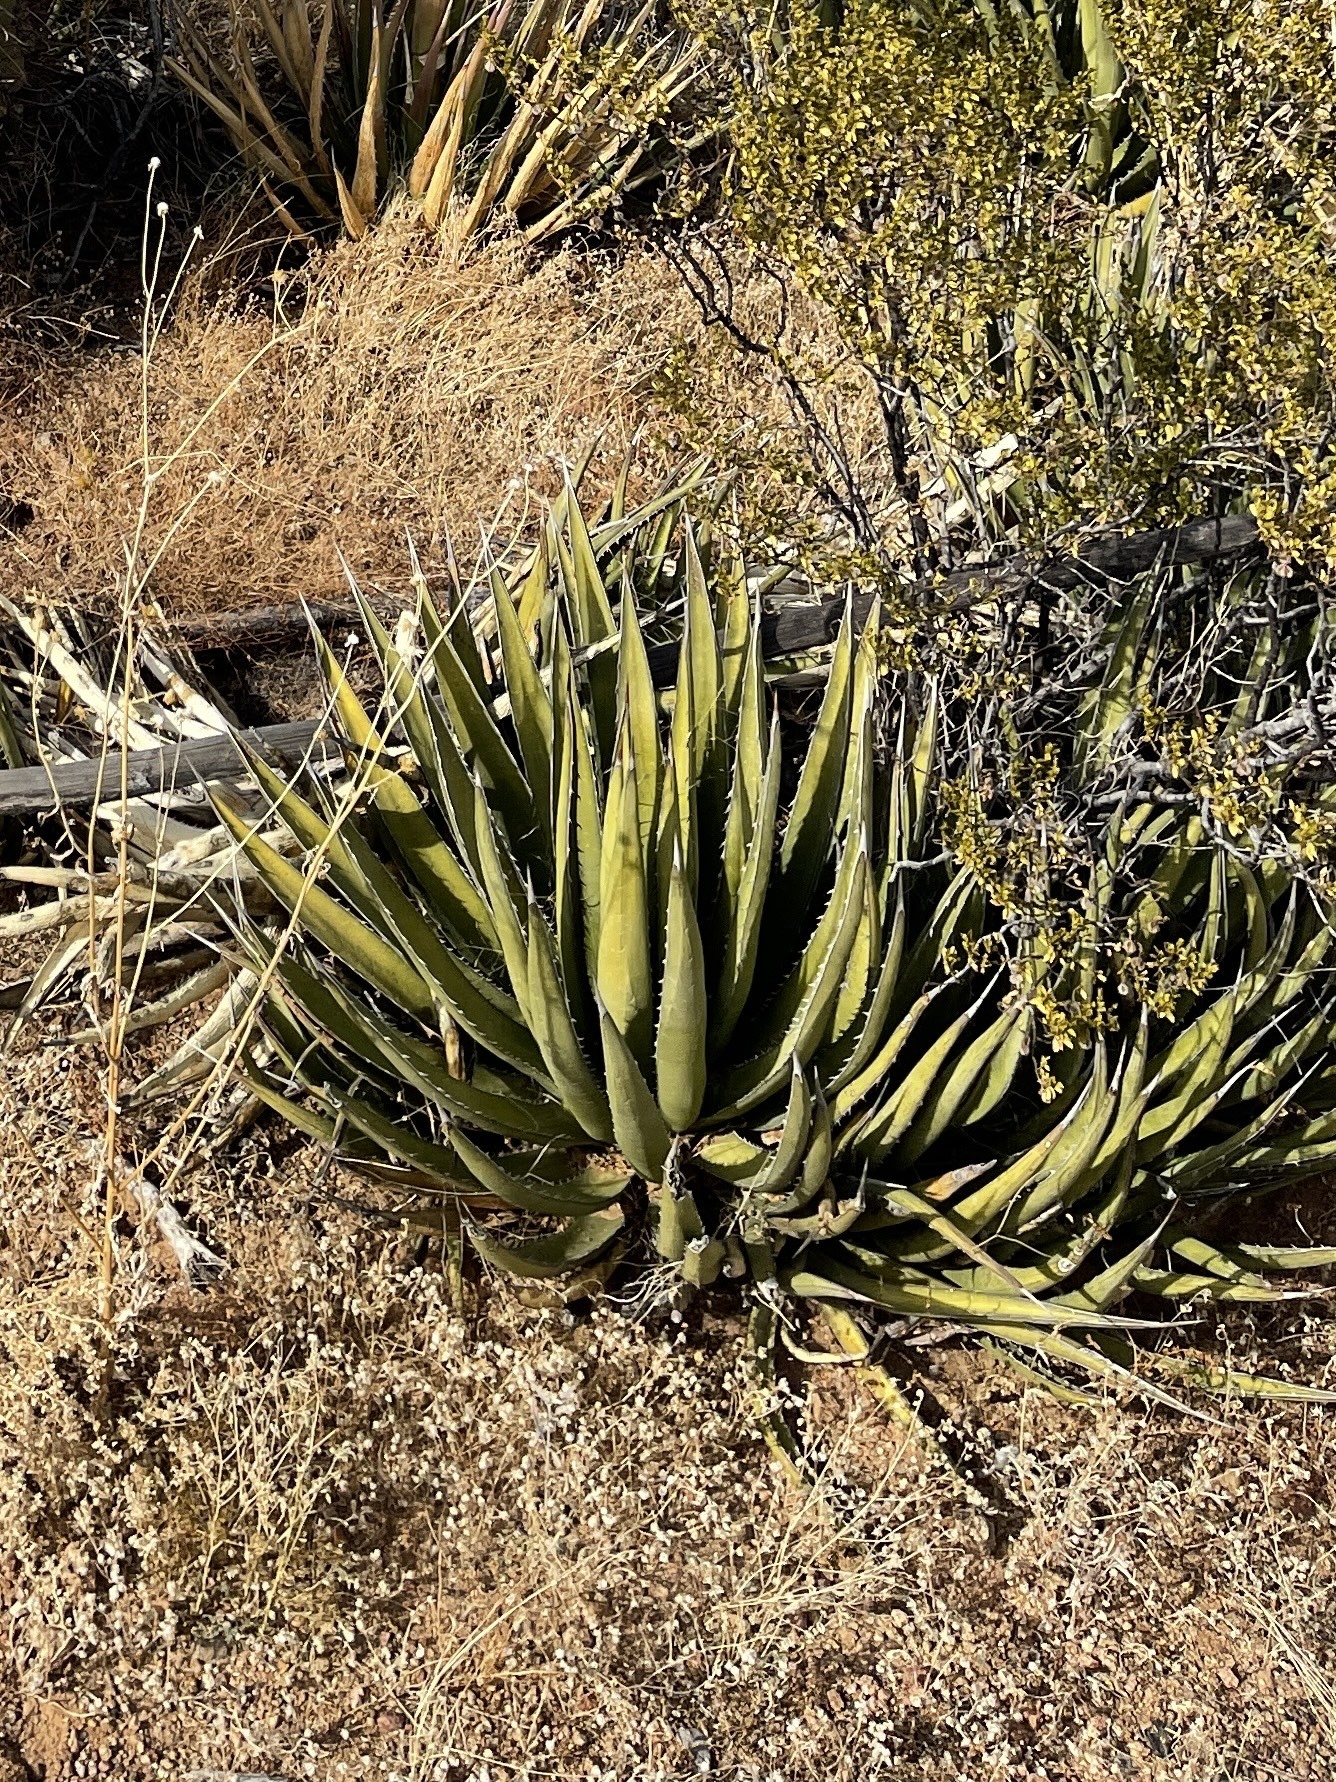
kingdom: Plantae
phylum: Tracheophyta
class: Liliopsida
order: Asparagales
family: Asparagaceae
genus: Agave
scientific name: Agave lechuguilla
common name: Lecheguilla agave
